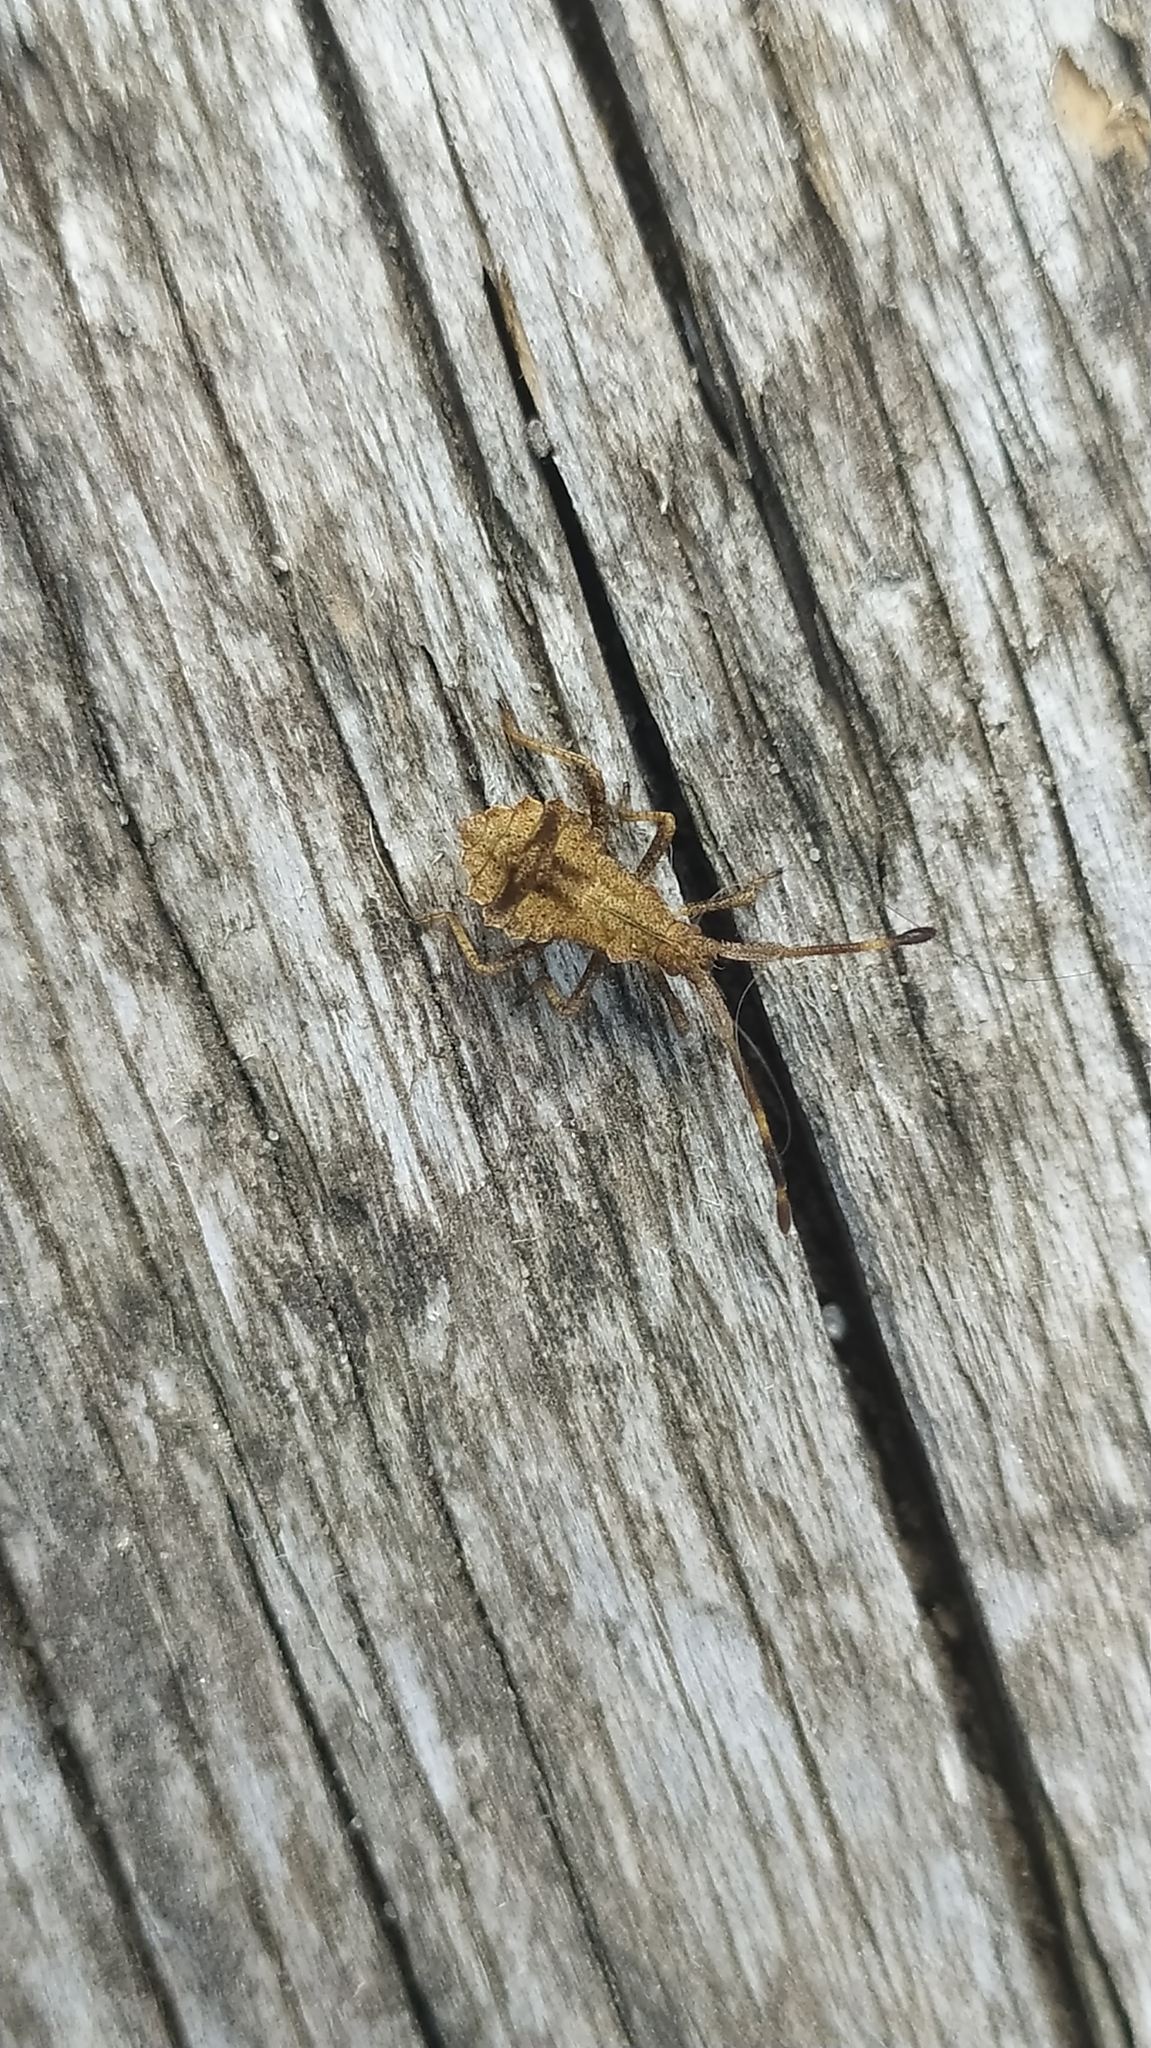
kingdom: Animalia
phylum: Arthropoda
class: Insecta
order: Hemiptera
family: Coreidae
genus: Coreus
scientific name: Coreus marginatus
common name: Dock bug
